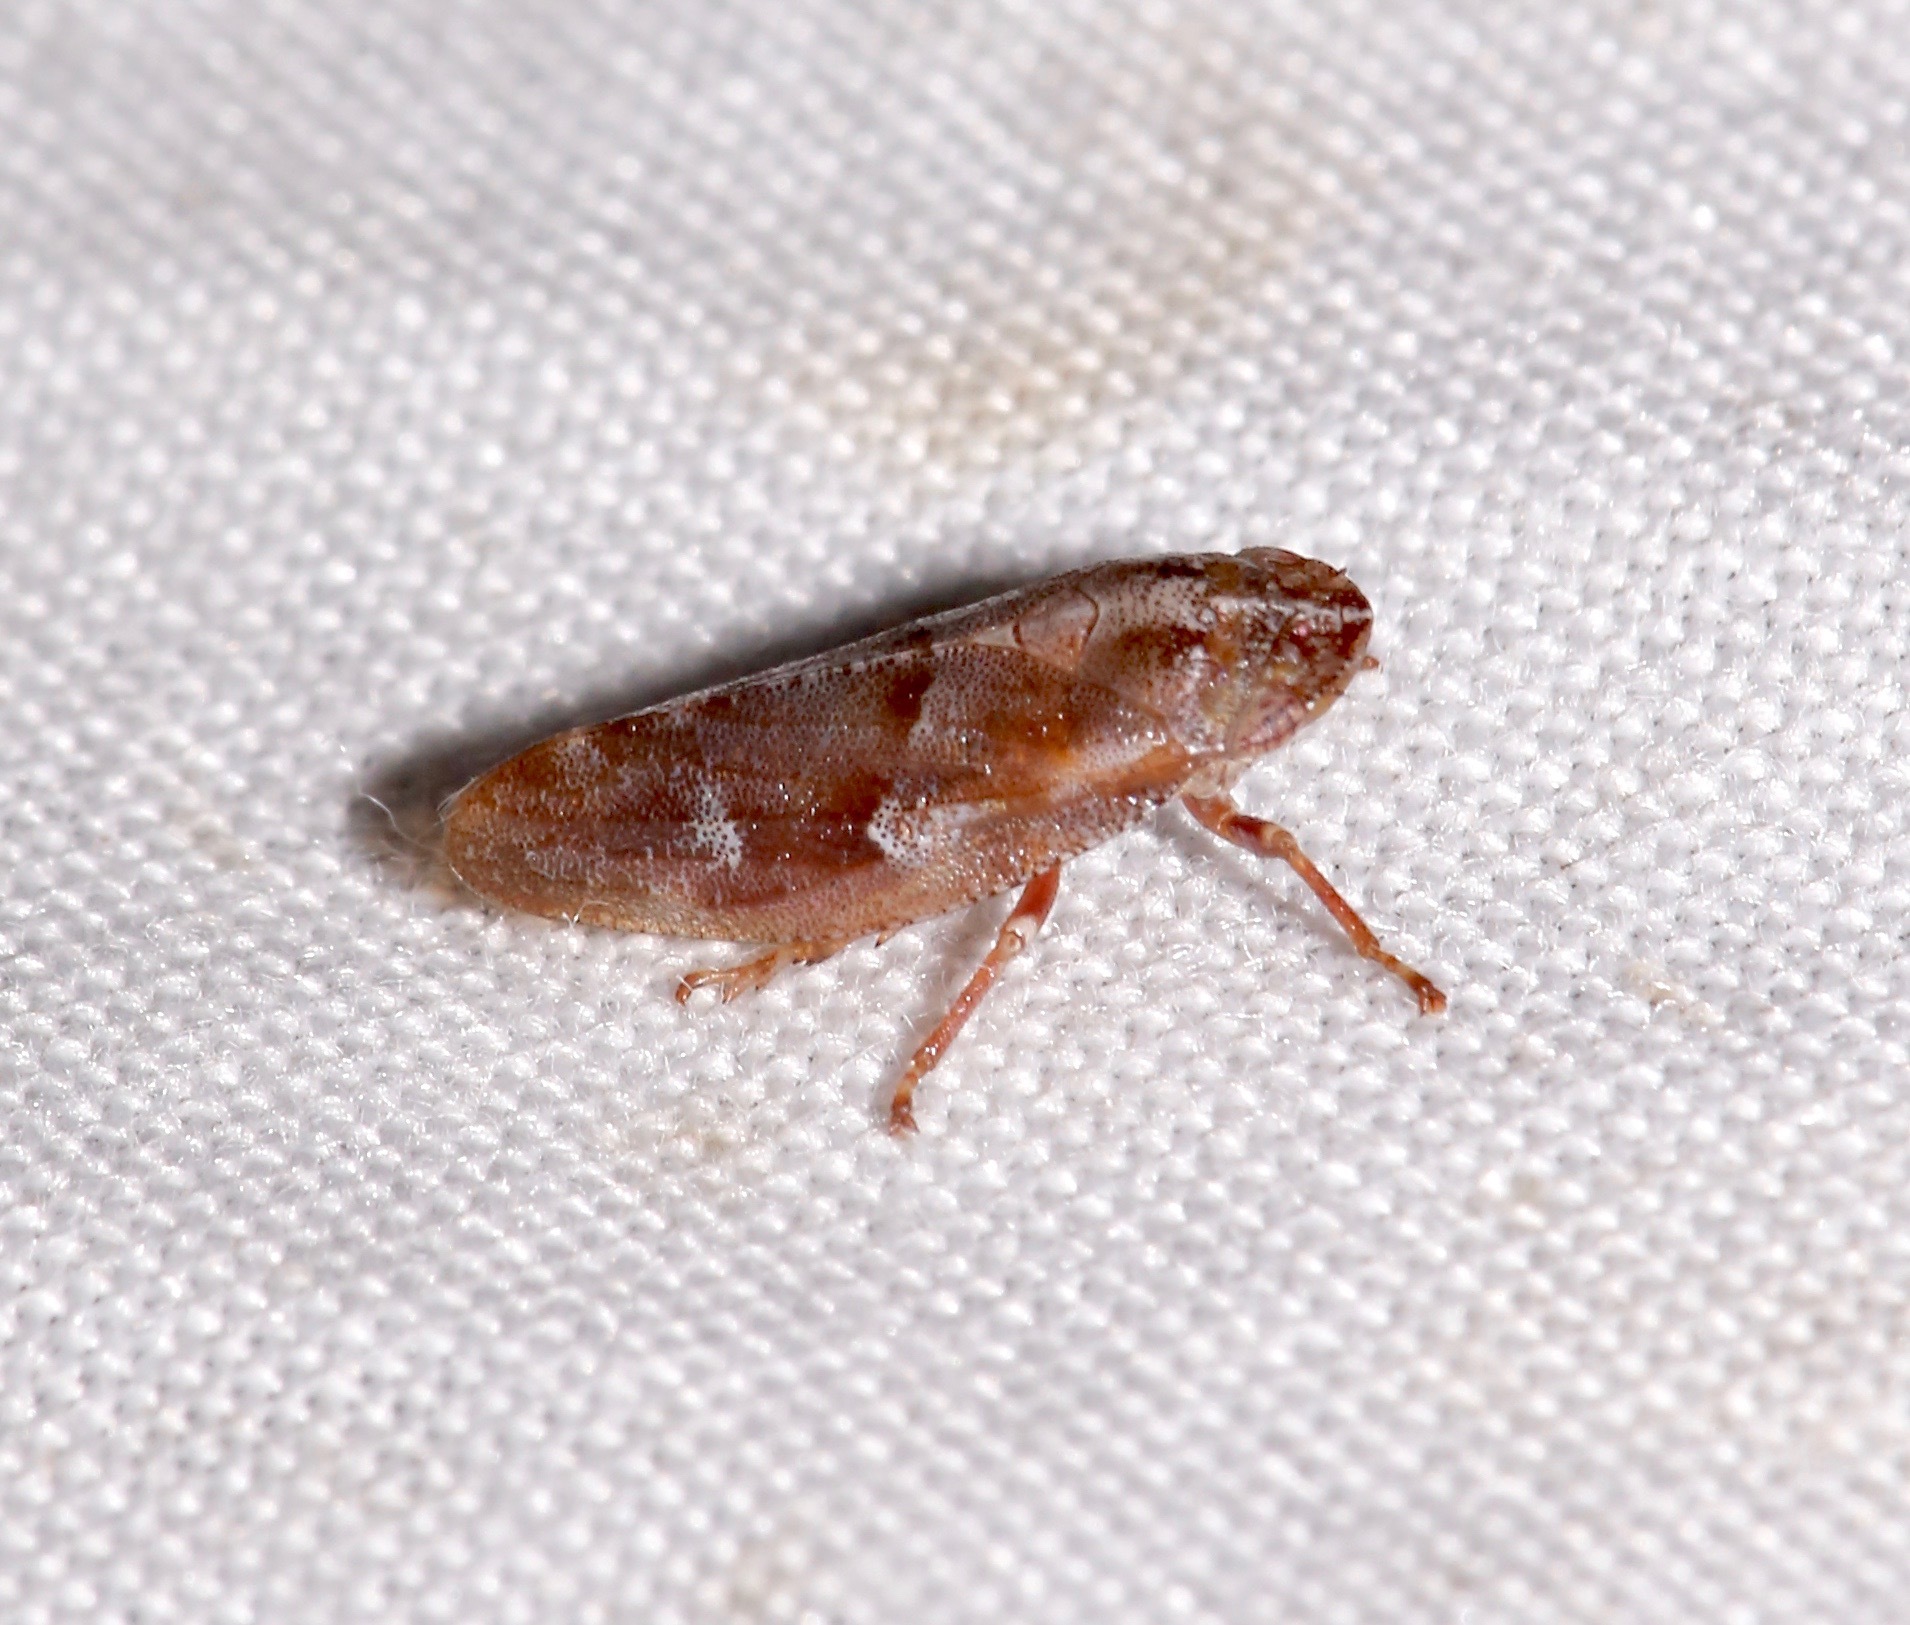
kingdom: Animalia
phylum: Arthropoda
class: Insecta
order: Hemiptera
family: Aphrophoridae
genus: Aphrophora
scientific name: Aphrophora saratogensis
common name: Saratoga spittlebug
